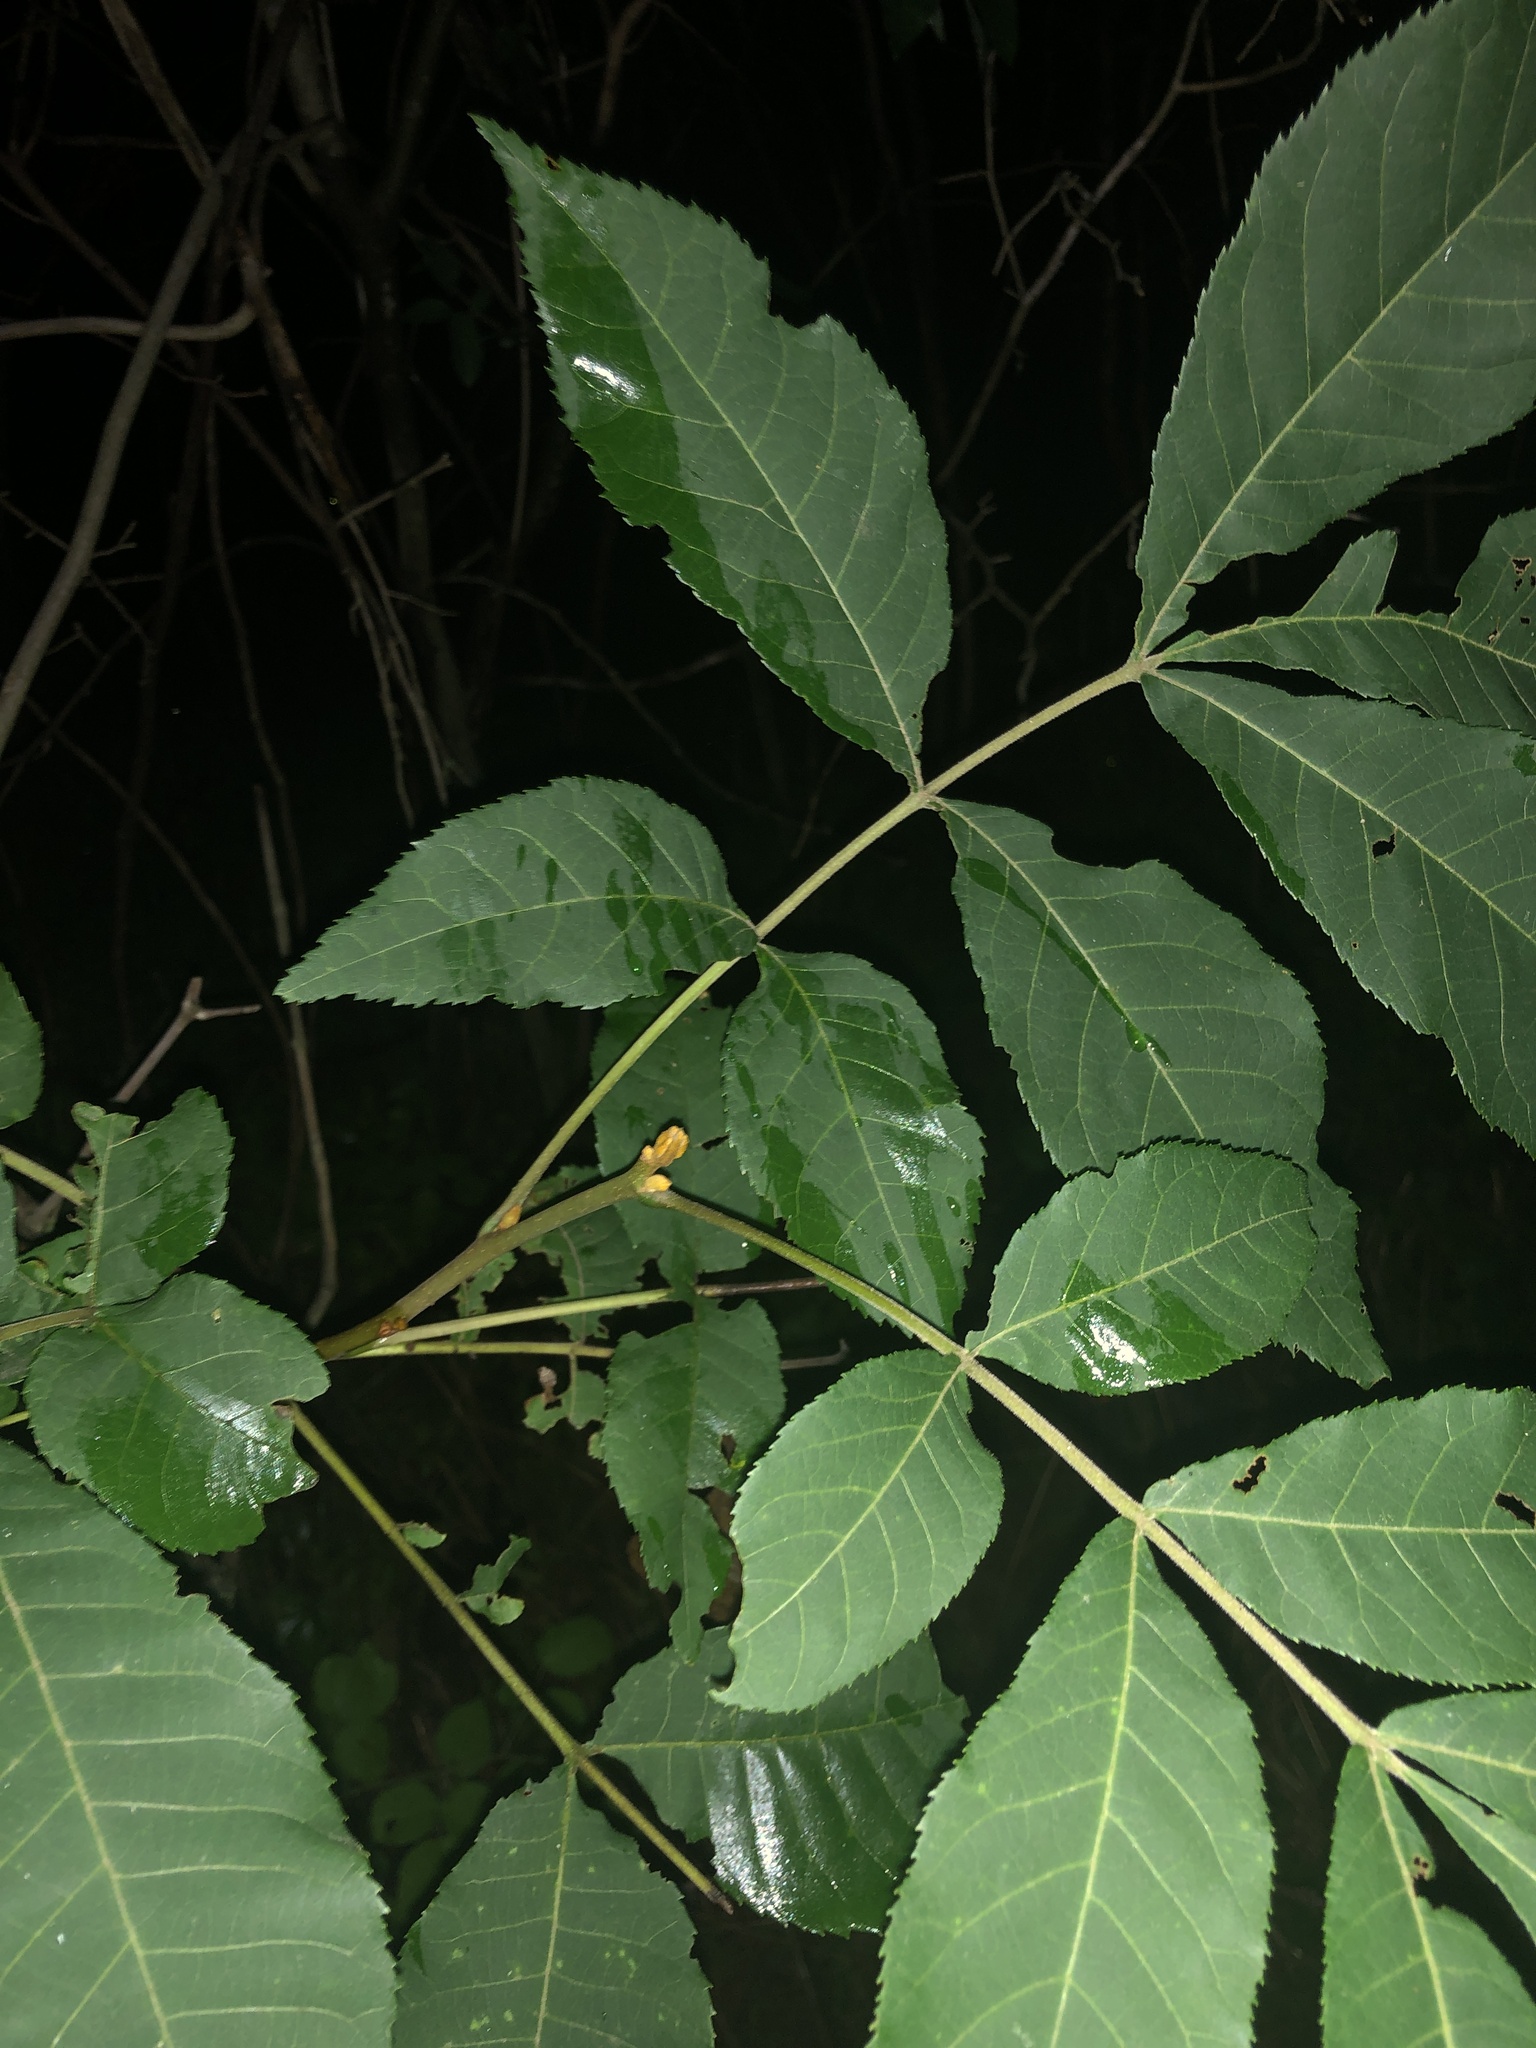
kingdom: Plantae
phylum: Tracheophyta
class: Magnoliopsida
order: Fagales
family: Juglandaceae
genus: Carya
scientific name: Carya cordiformis
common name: Bitternut hickory
